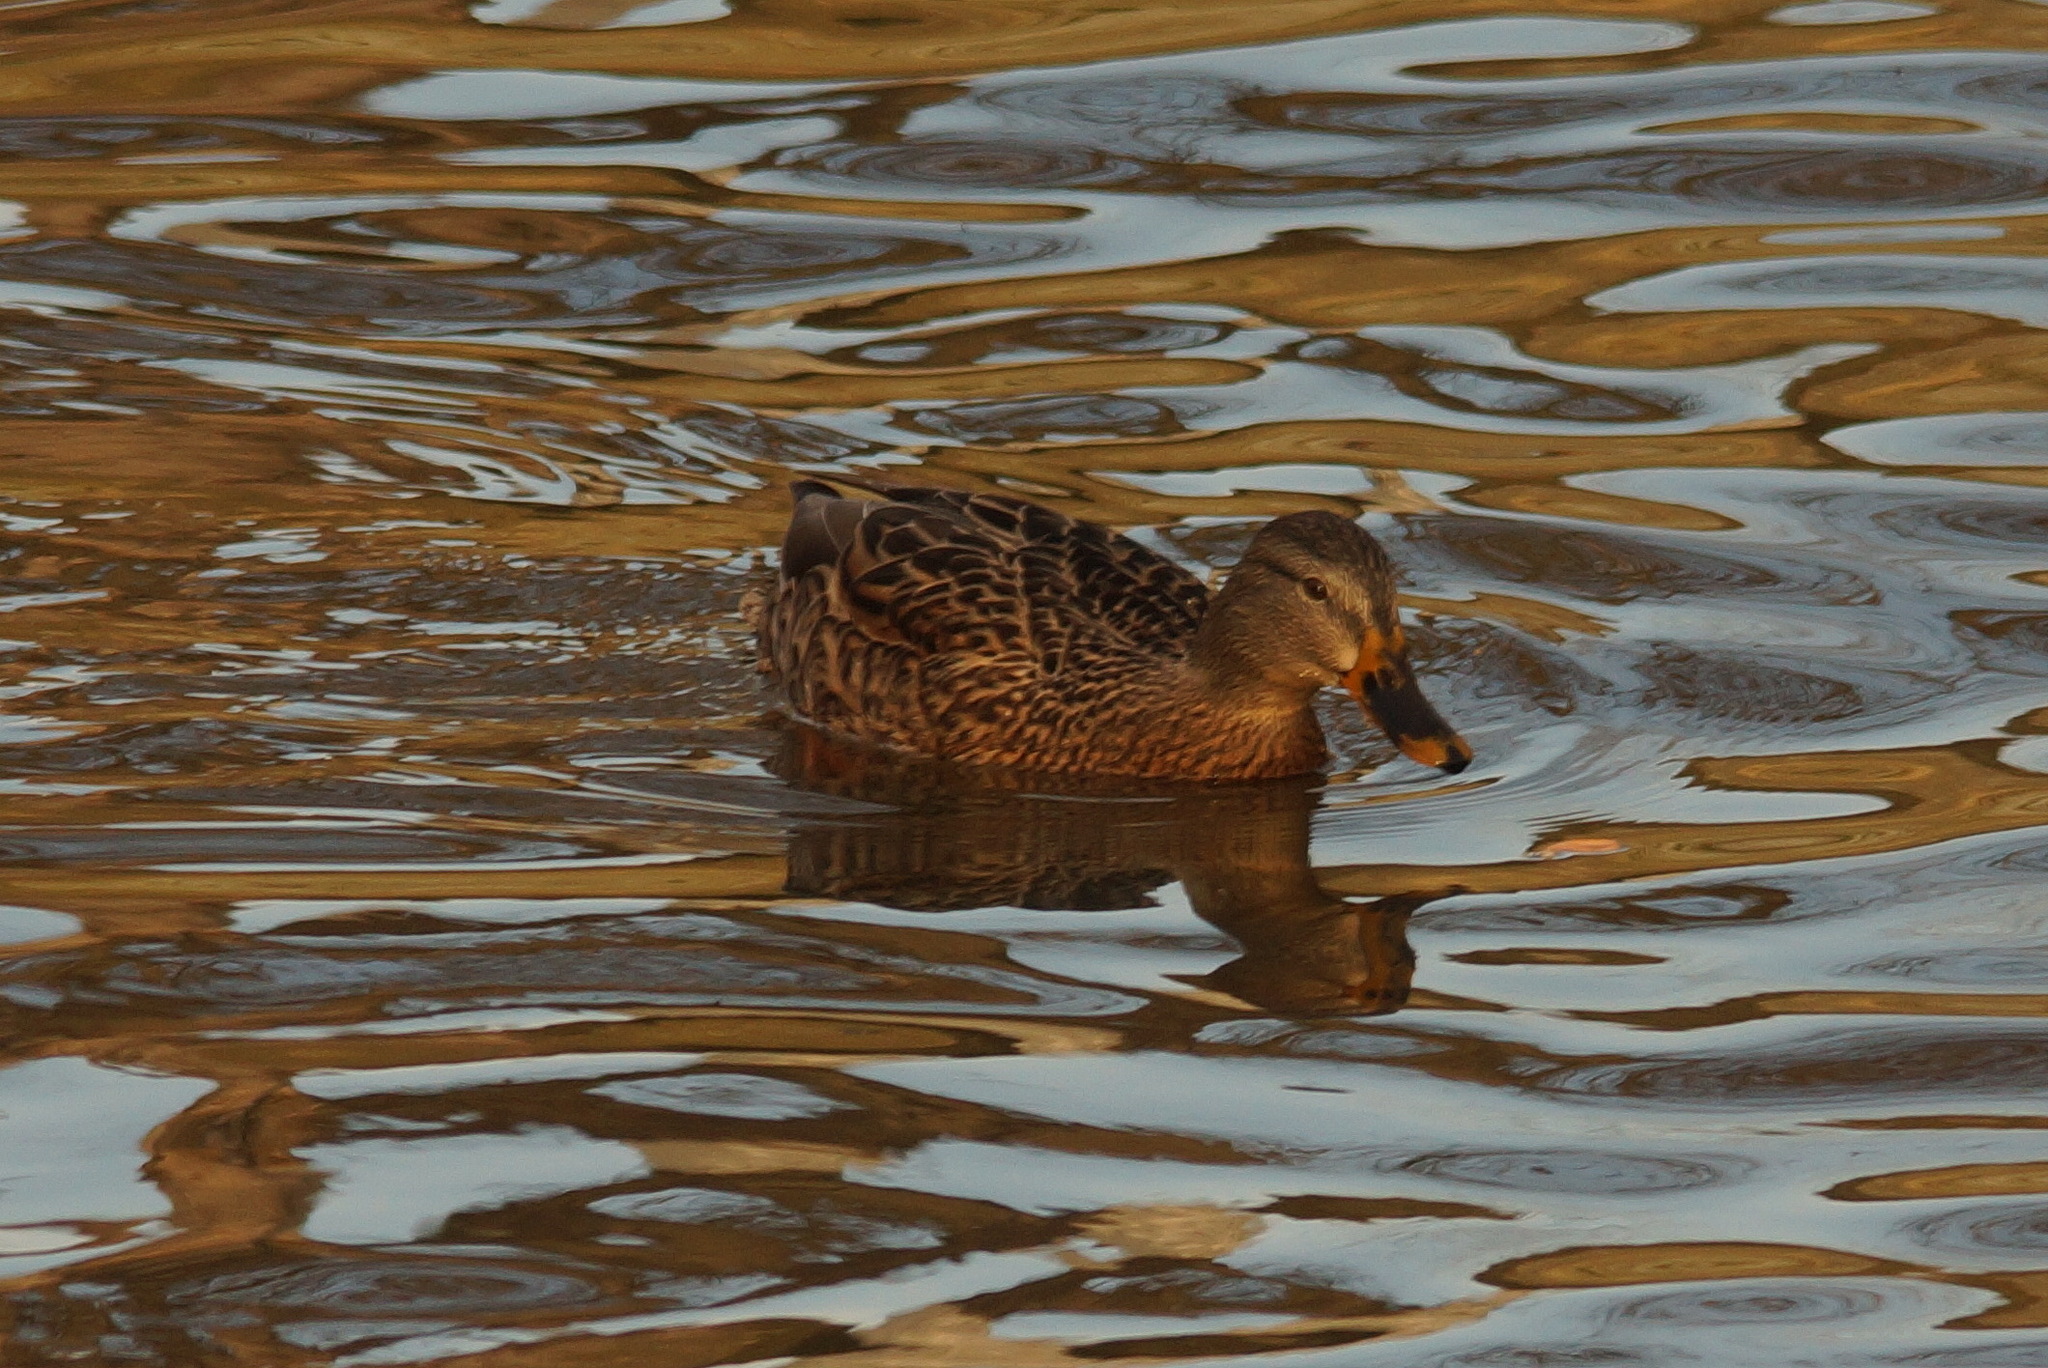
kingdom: Animalia
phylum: Chordata
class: Aves
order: Anseriformes
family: Anatidae
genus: Anas
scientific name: Anas platyrhynchos
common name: Mallard
